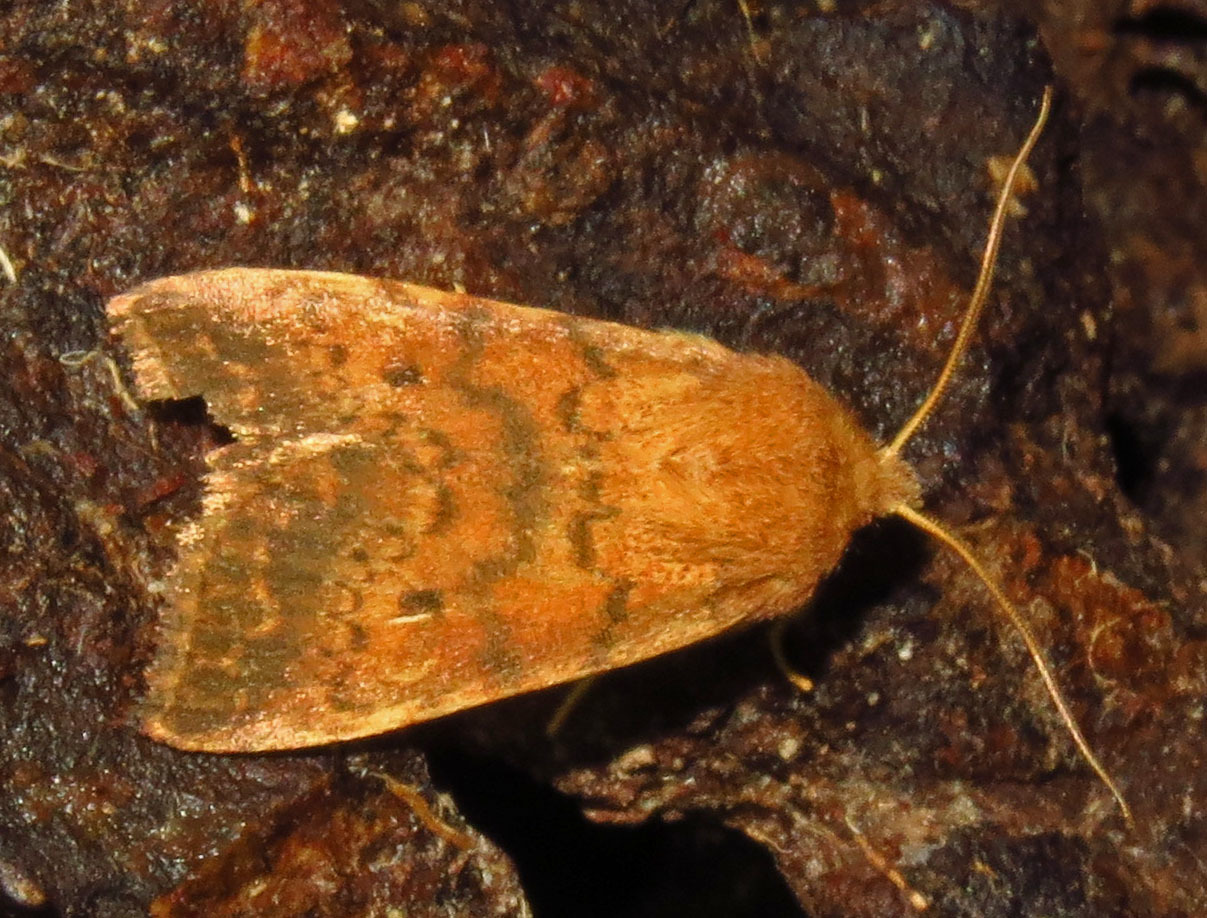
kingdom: Animalia
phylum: Arthropoda
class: Insecta
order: Lepidoptera
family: Noctuidae
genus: Agrochola
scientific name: Agrochola bicolorago
